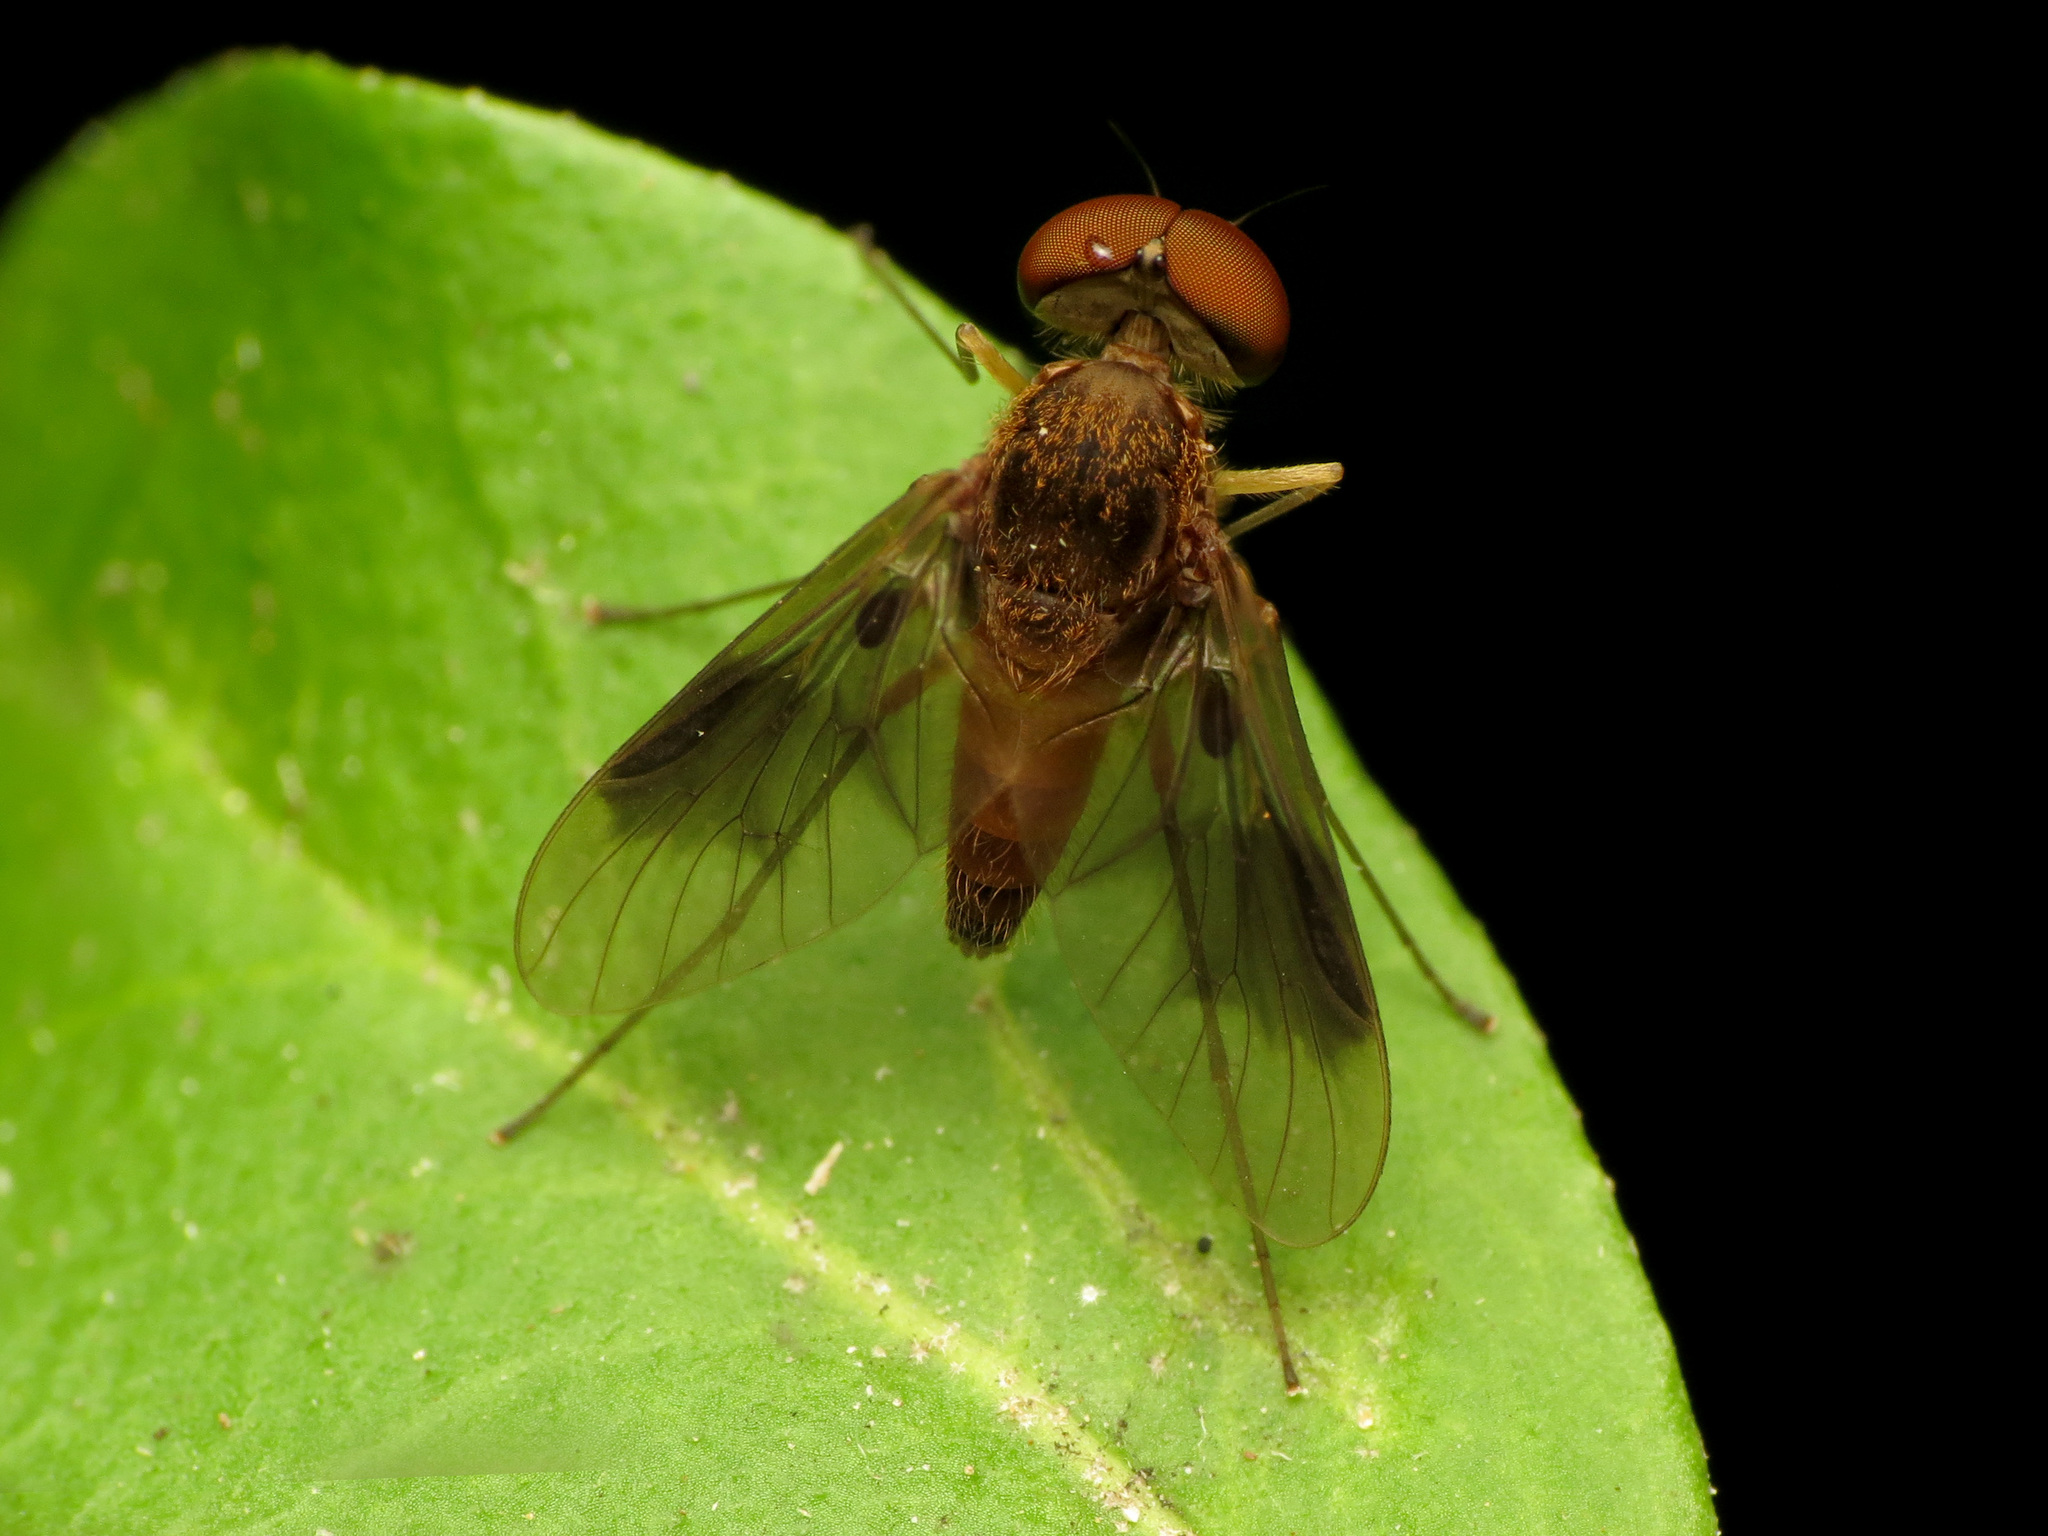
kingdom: Animalia
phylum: Arthropoda
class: Insecta
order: Diptera
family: Rhagionidae
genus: Chrysopilus
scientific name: Chrysopilus quadratus
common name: Quadrate snipe fly
